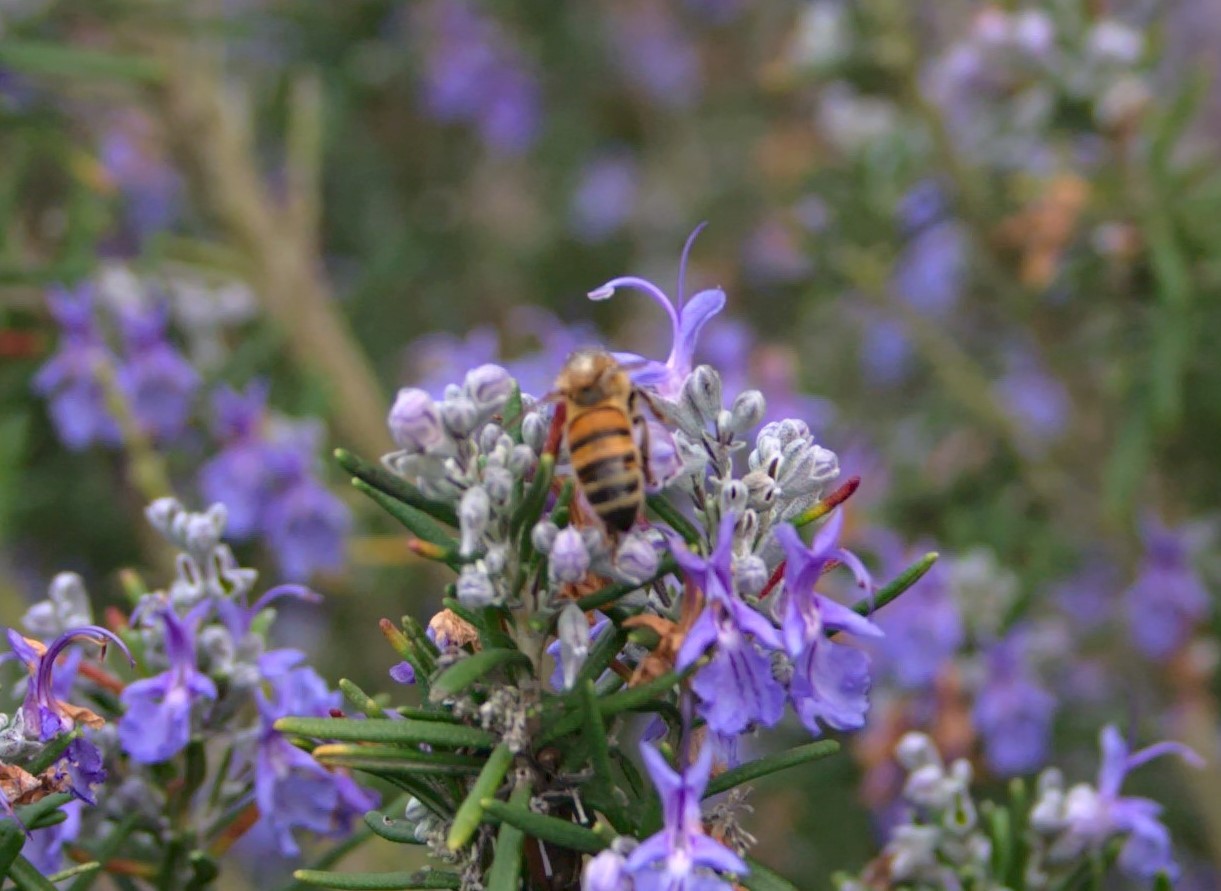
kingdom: Animalia
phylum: Arthropoda
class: Insecta
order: Hymenoptera
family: Apidae
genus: Apis
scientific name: Apis mellifera
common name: Honey bee
